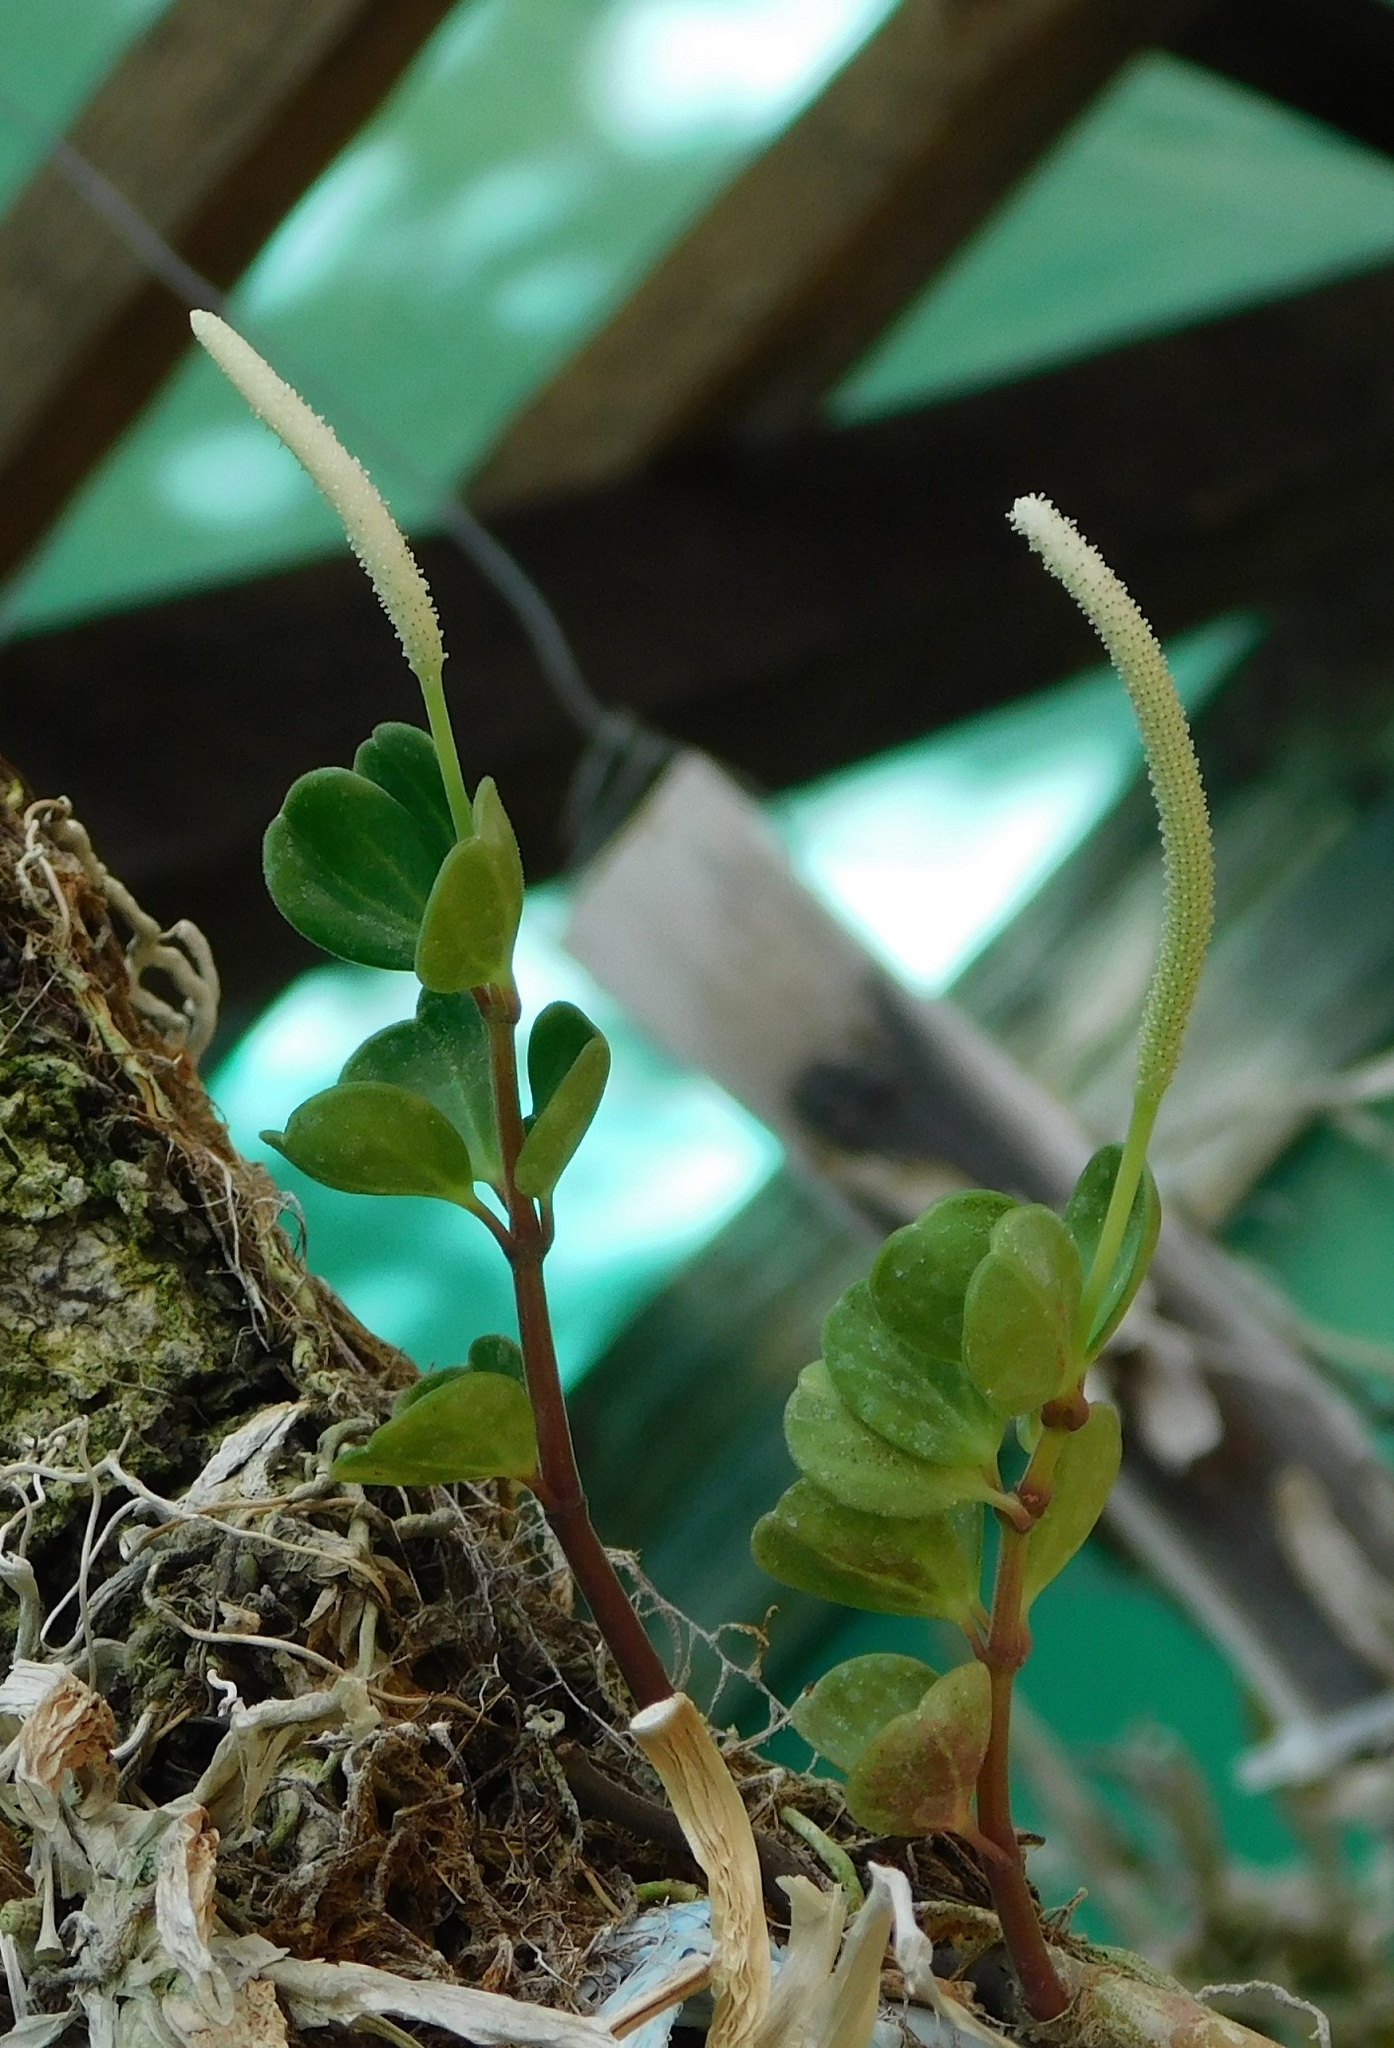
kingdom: Plantae
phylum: Tracheophyta
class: Magnoliopsida
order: Piperales
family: Piperaceae
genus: Peperomia
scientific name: Peperomia quadrifolia
